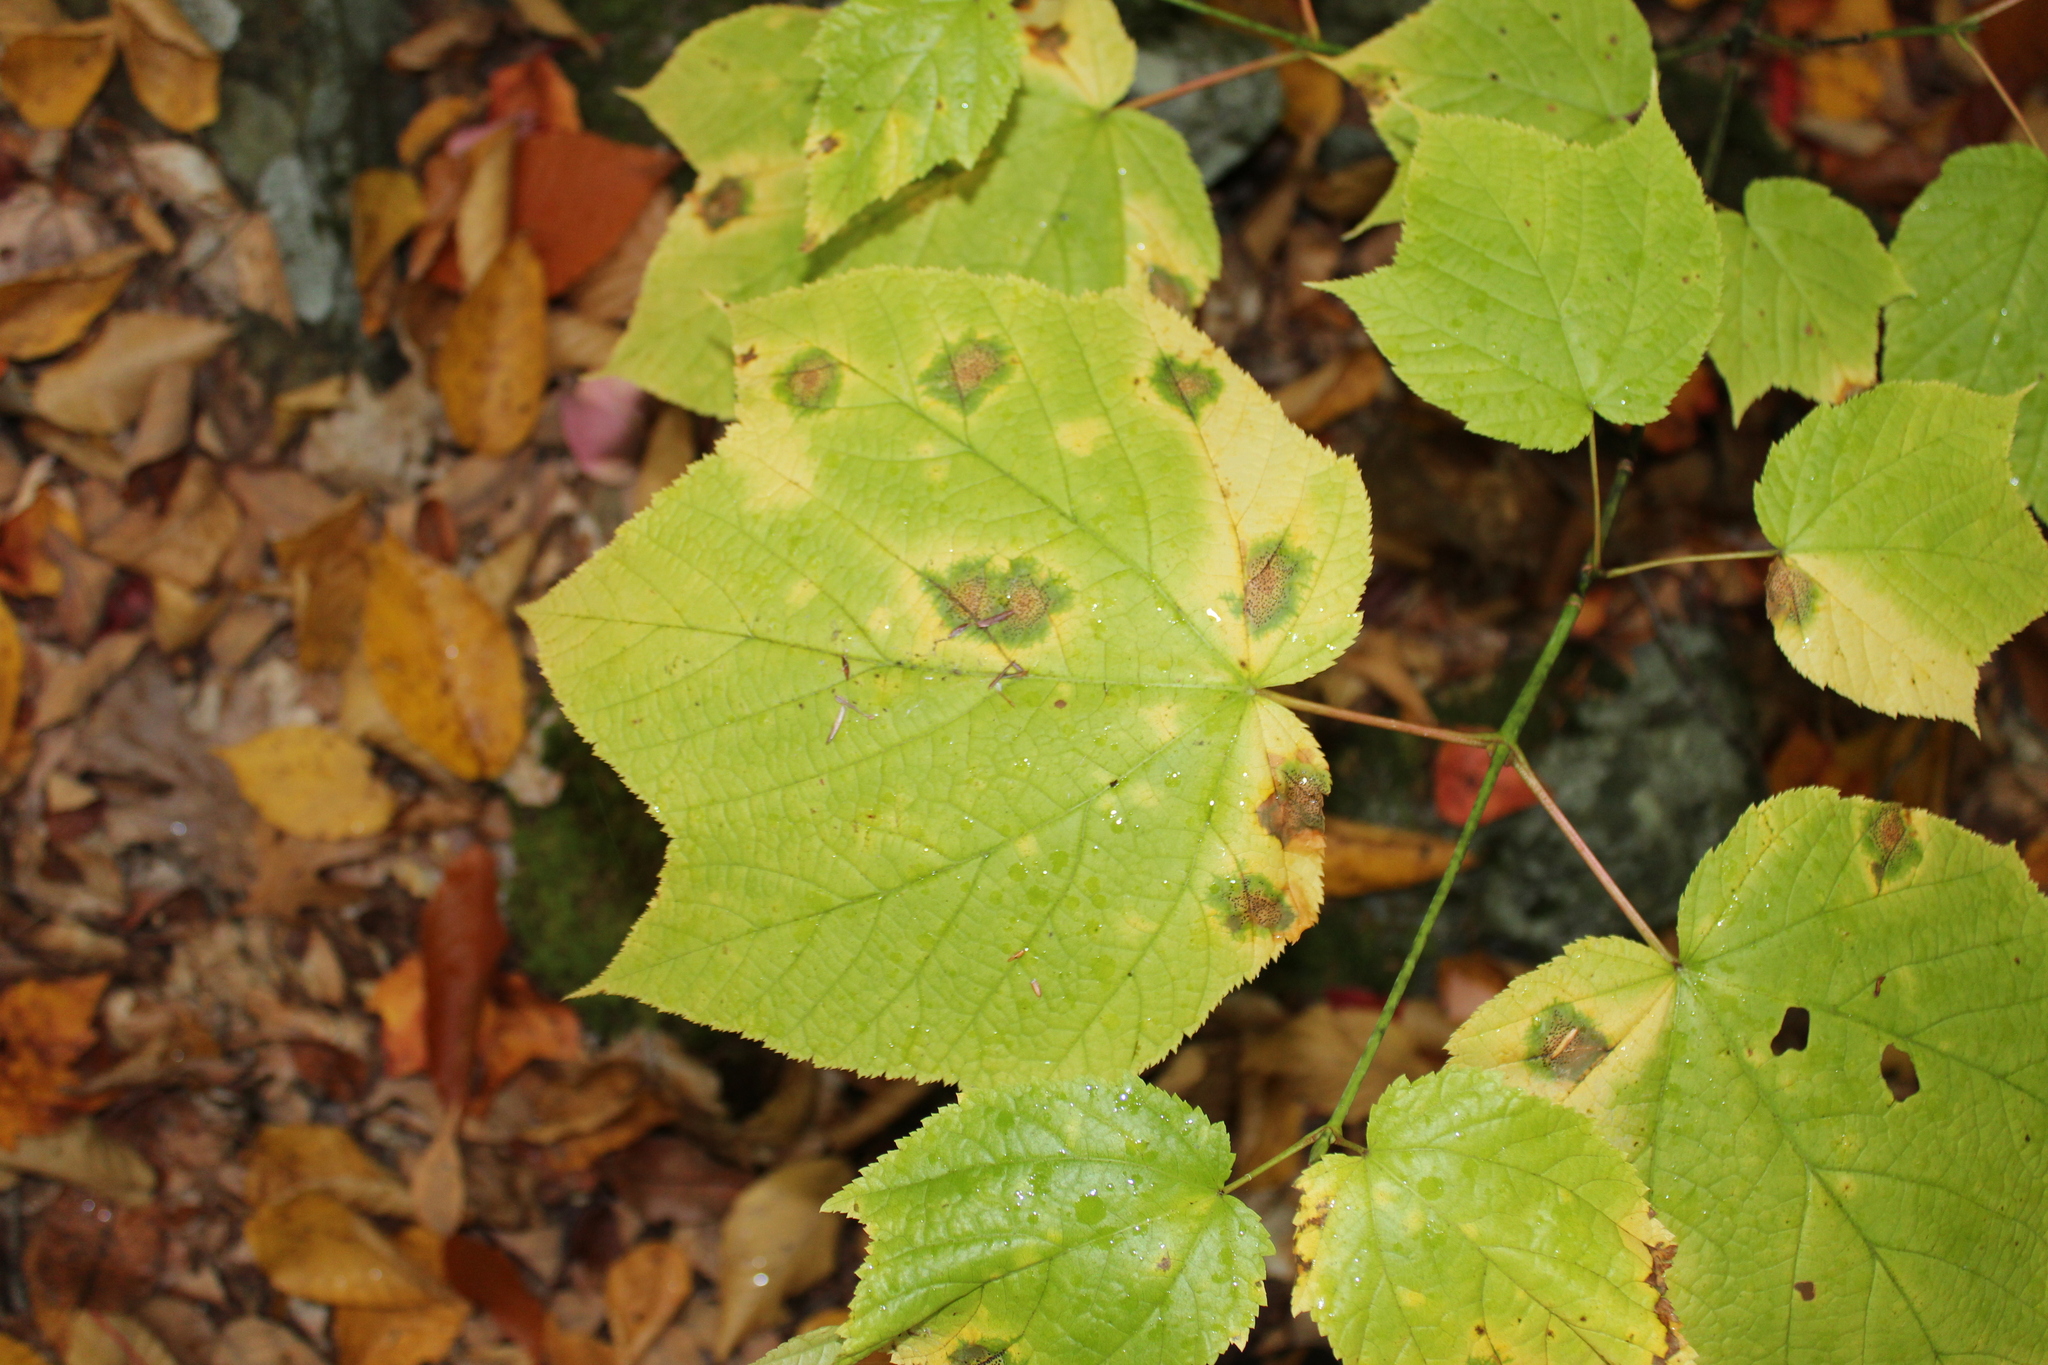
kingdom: Plantae
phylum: Tracheophyta
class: Magnoliopsida
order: Sapindales
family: Sapindaceae
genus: Acer
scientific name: Acer pensylvanicum
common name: Moosewood
